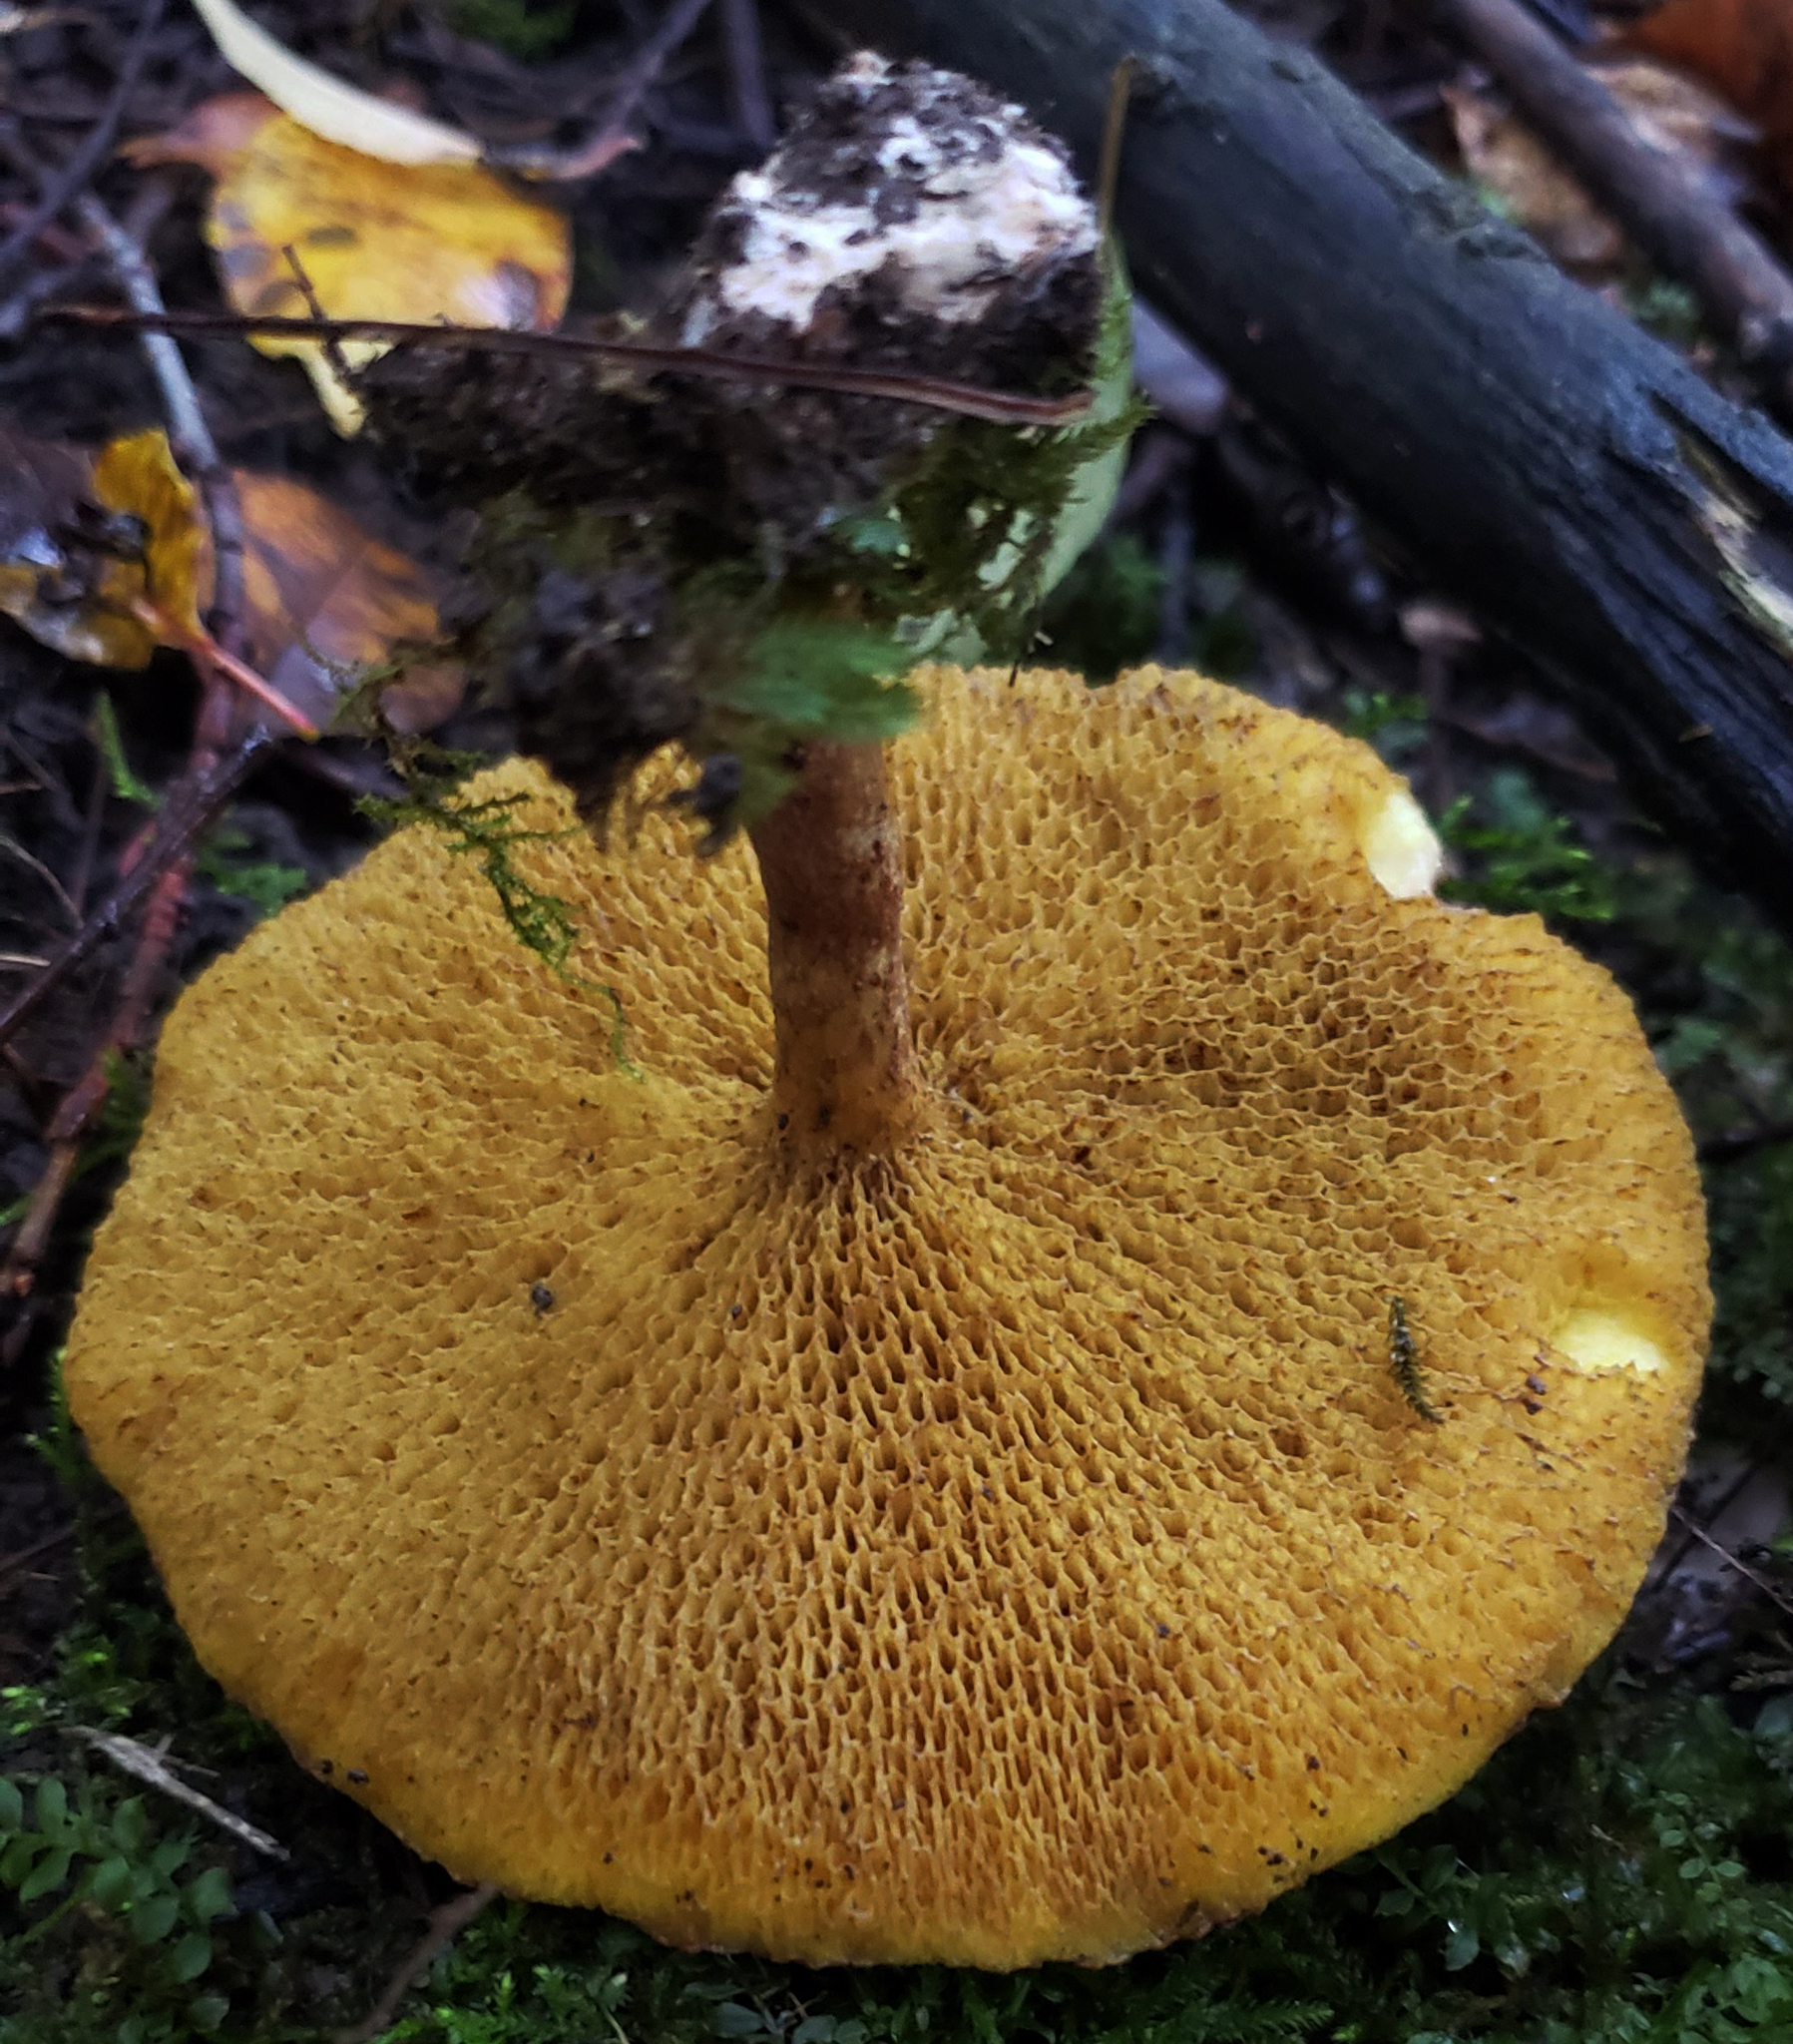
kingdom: Fungi
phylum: Basidiomycota
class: Agaricomycetes
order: Boletales
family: Suillaceae
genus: Suillus
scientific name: Suillus americanus
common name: Chicken fat mushroom
